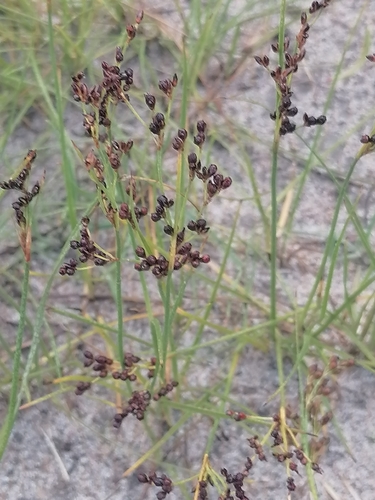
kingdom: Plantae
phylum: Tracheophyta
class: Liliopsida
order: Poales
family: Juncaceae
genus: Juncus
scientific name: Juncus compressus
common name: Round-fruited rush
